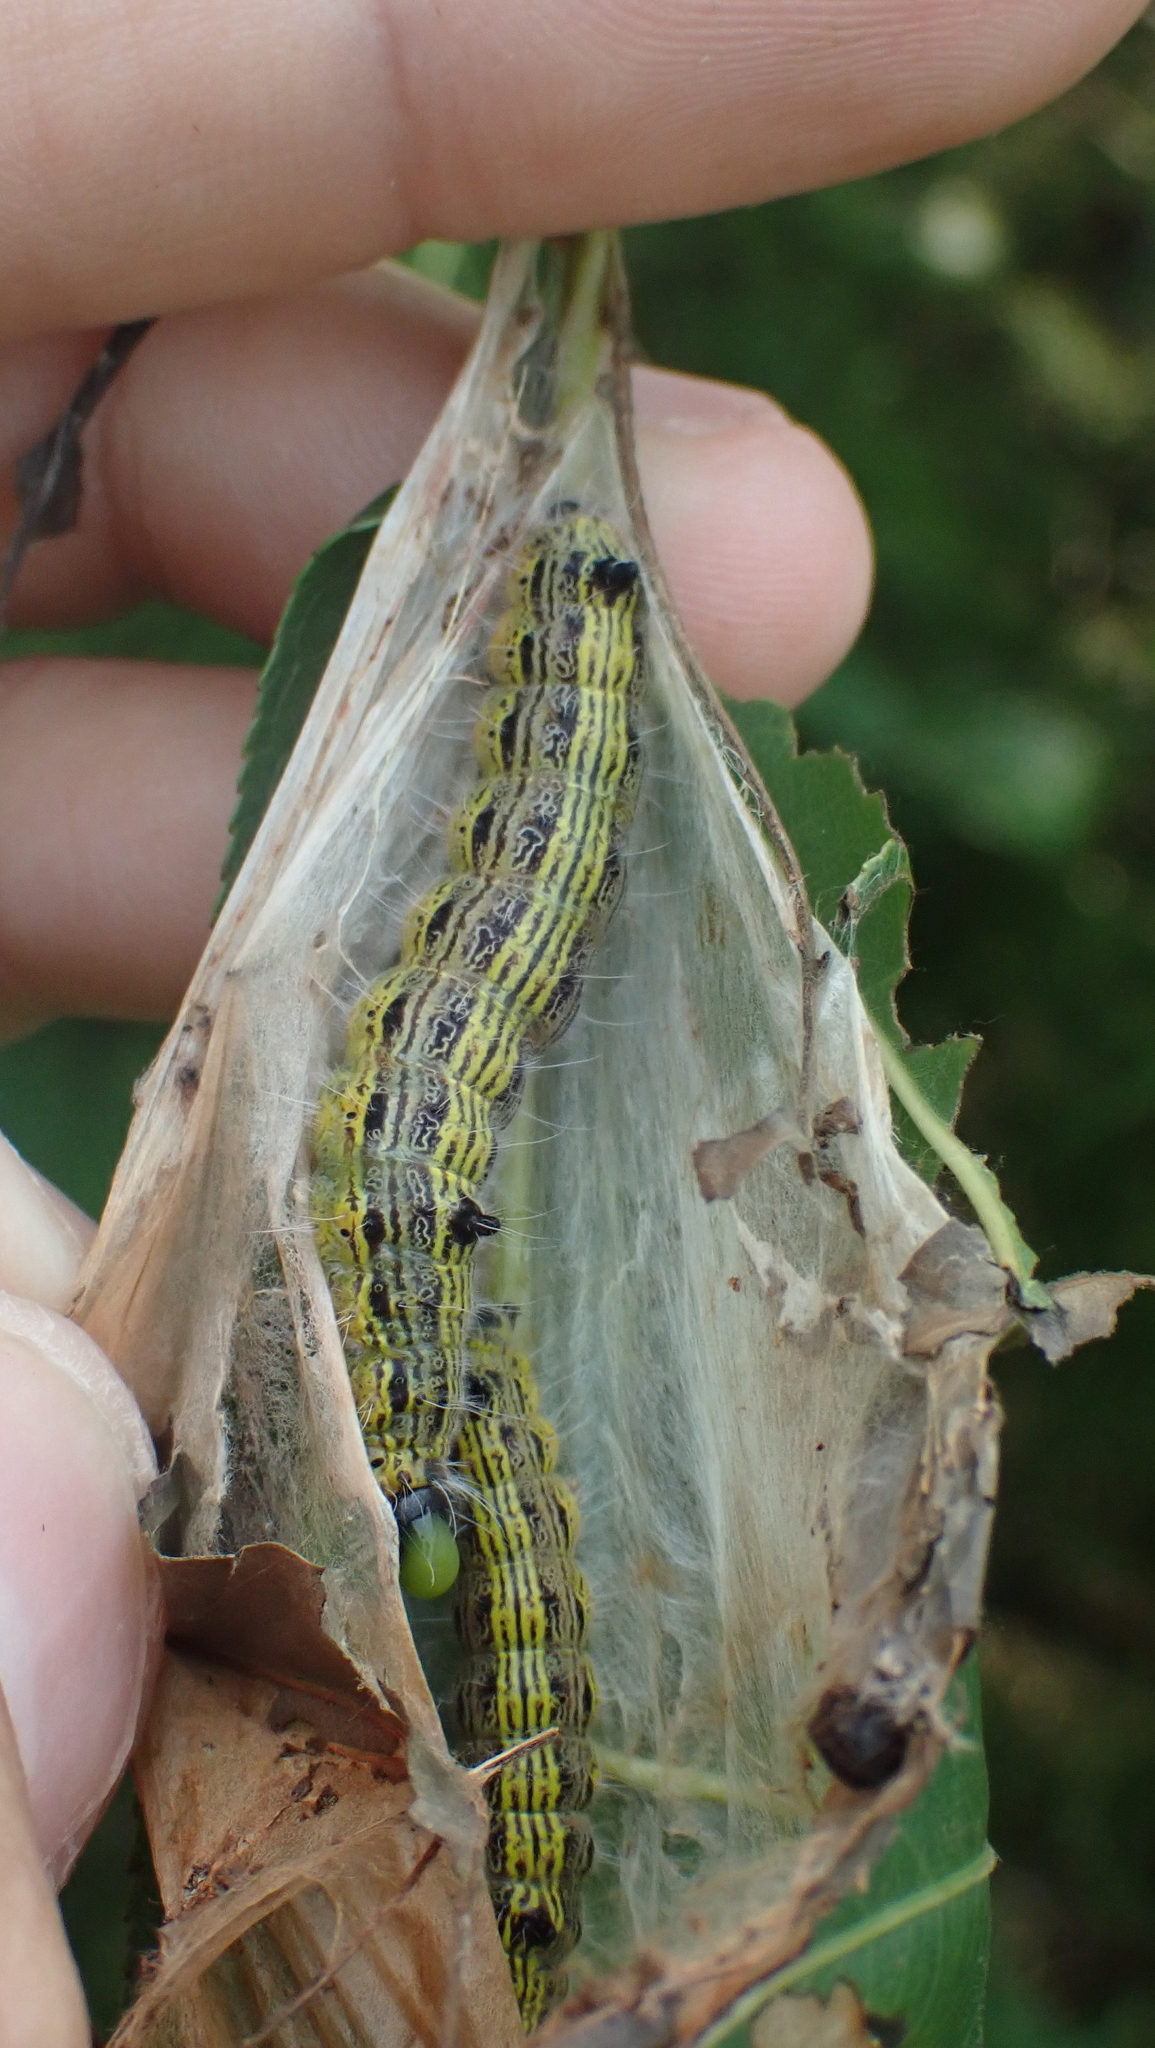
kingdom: Animalia
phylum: Arthropoda
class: Insecta
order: Lepidoptera
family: Notodontidae
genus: Clostera
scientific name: Clostera inclusa
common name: Angle-lined prominent
